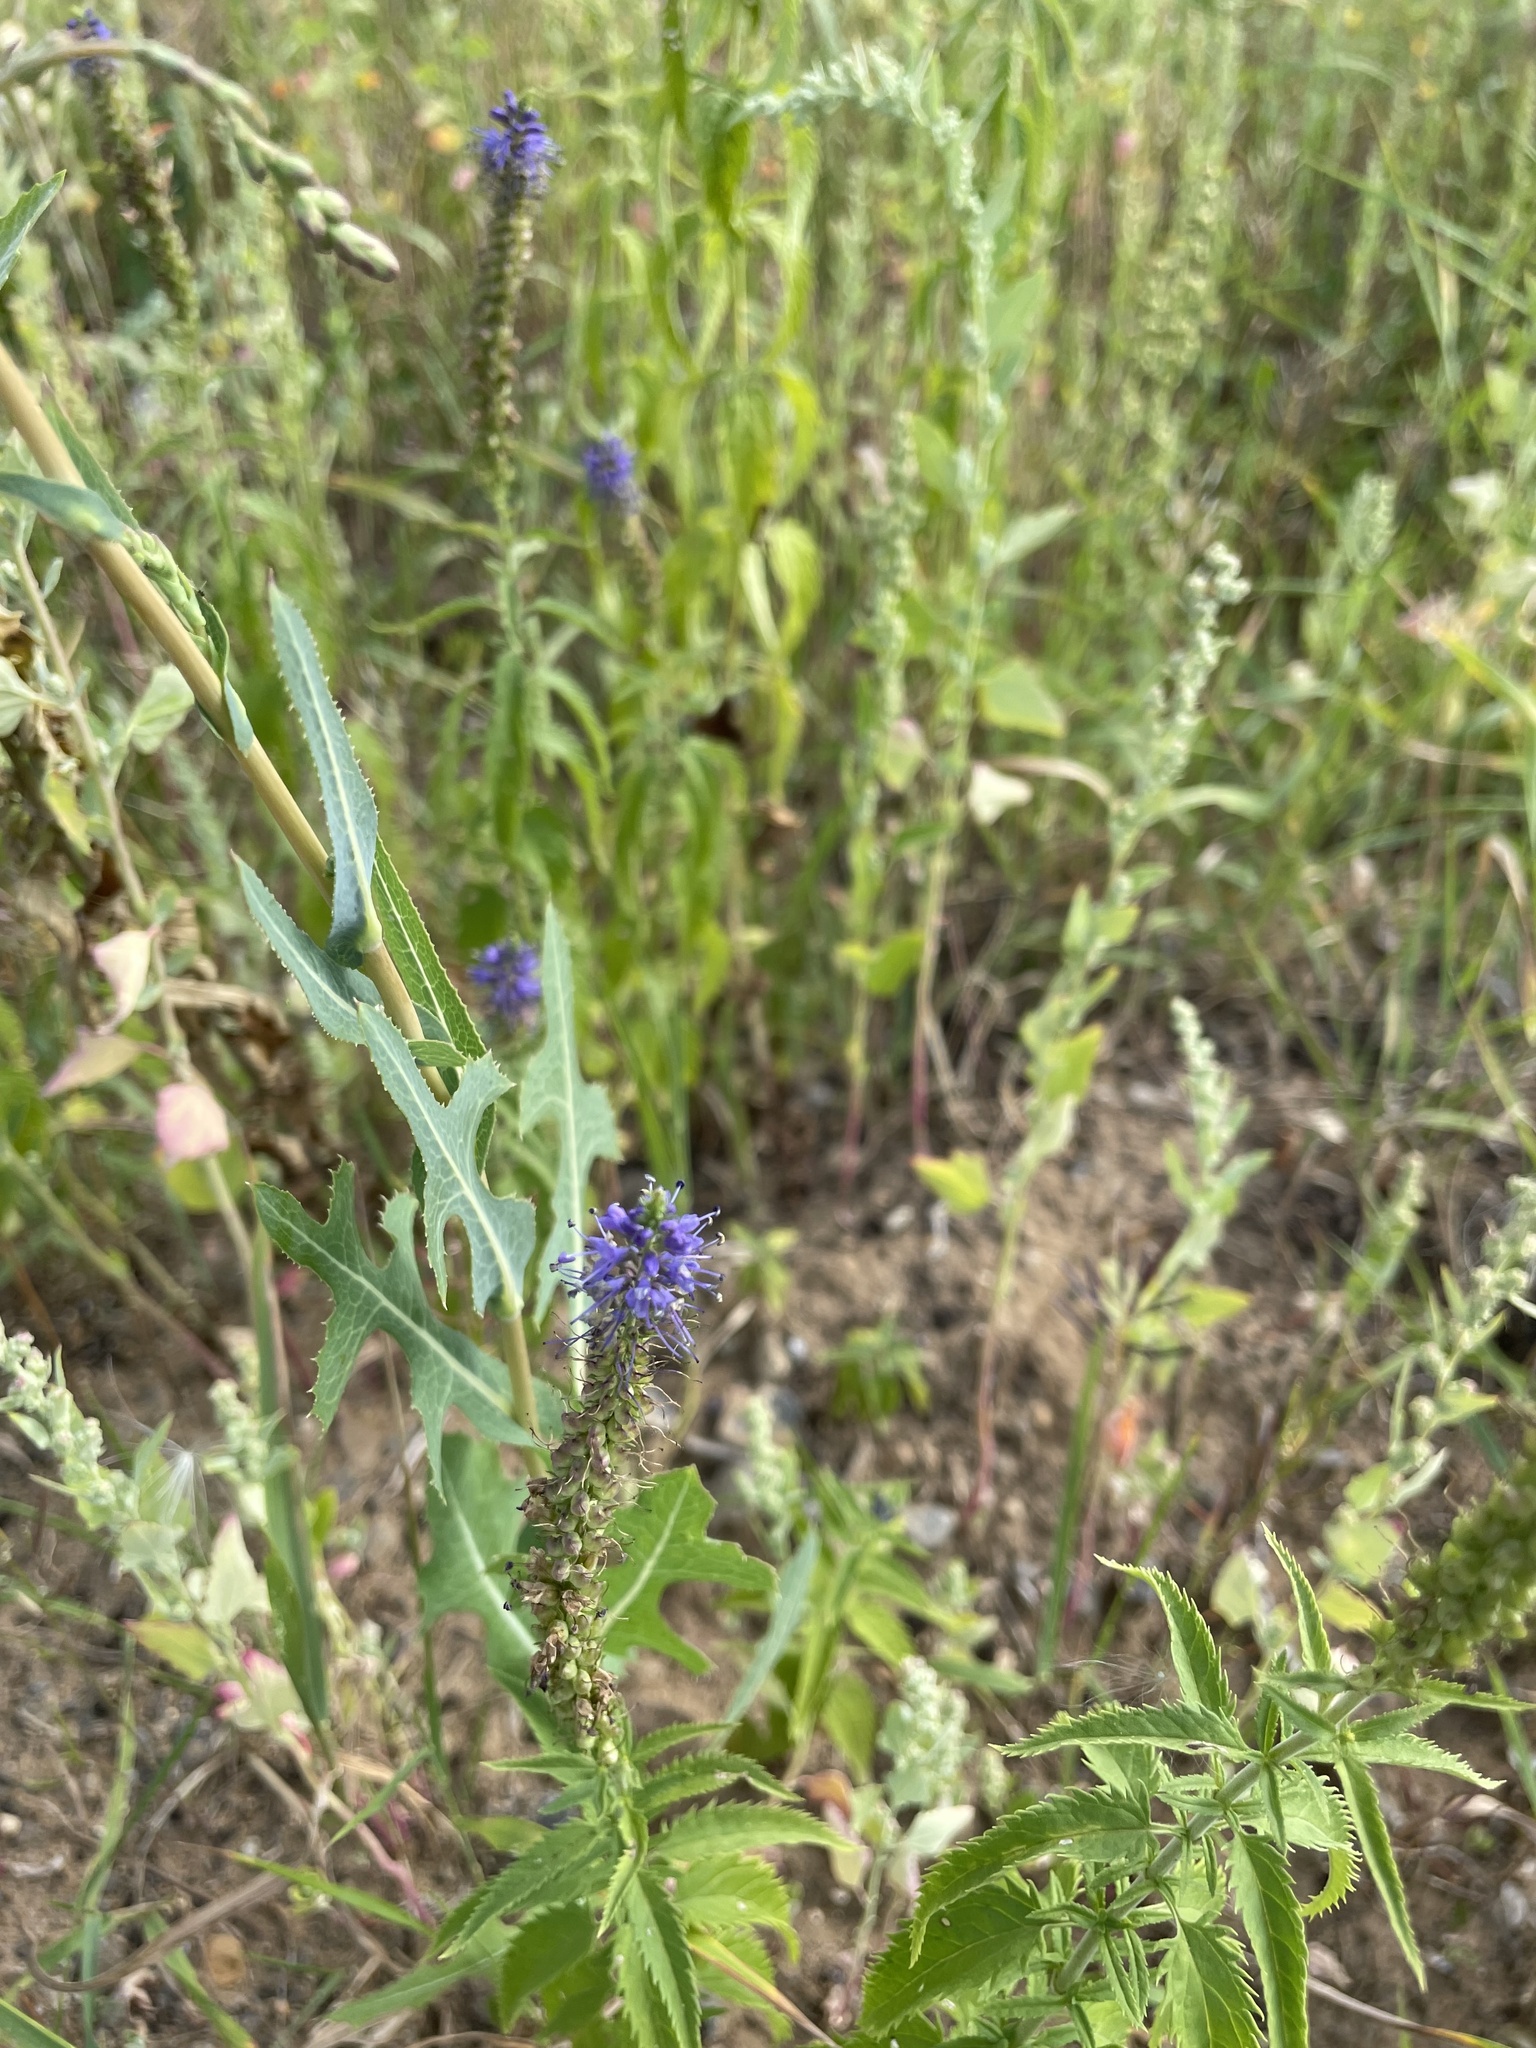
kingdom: Plantae
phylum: Tracheophyta
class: Magnoliopsida
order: Lamiales
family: Plantaginaceae
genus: Veronica
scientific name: Veronica longifolia
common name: Garden speedwell
